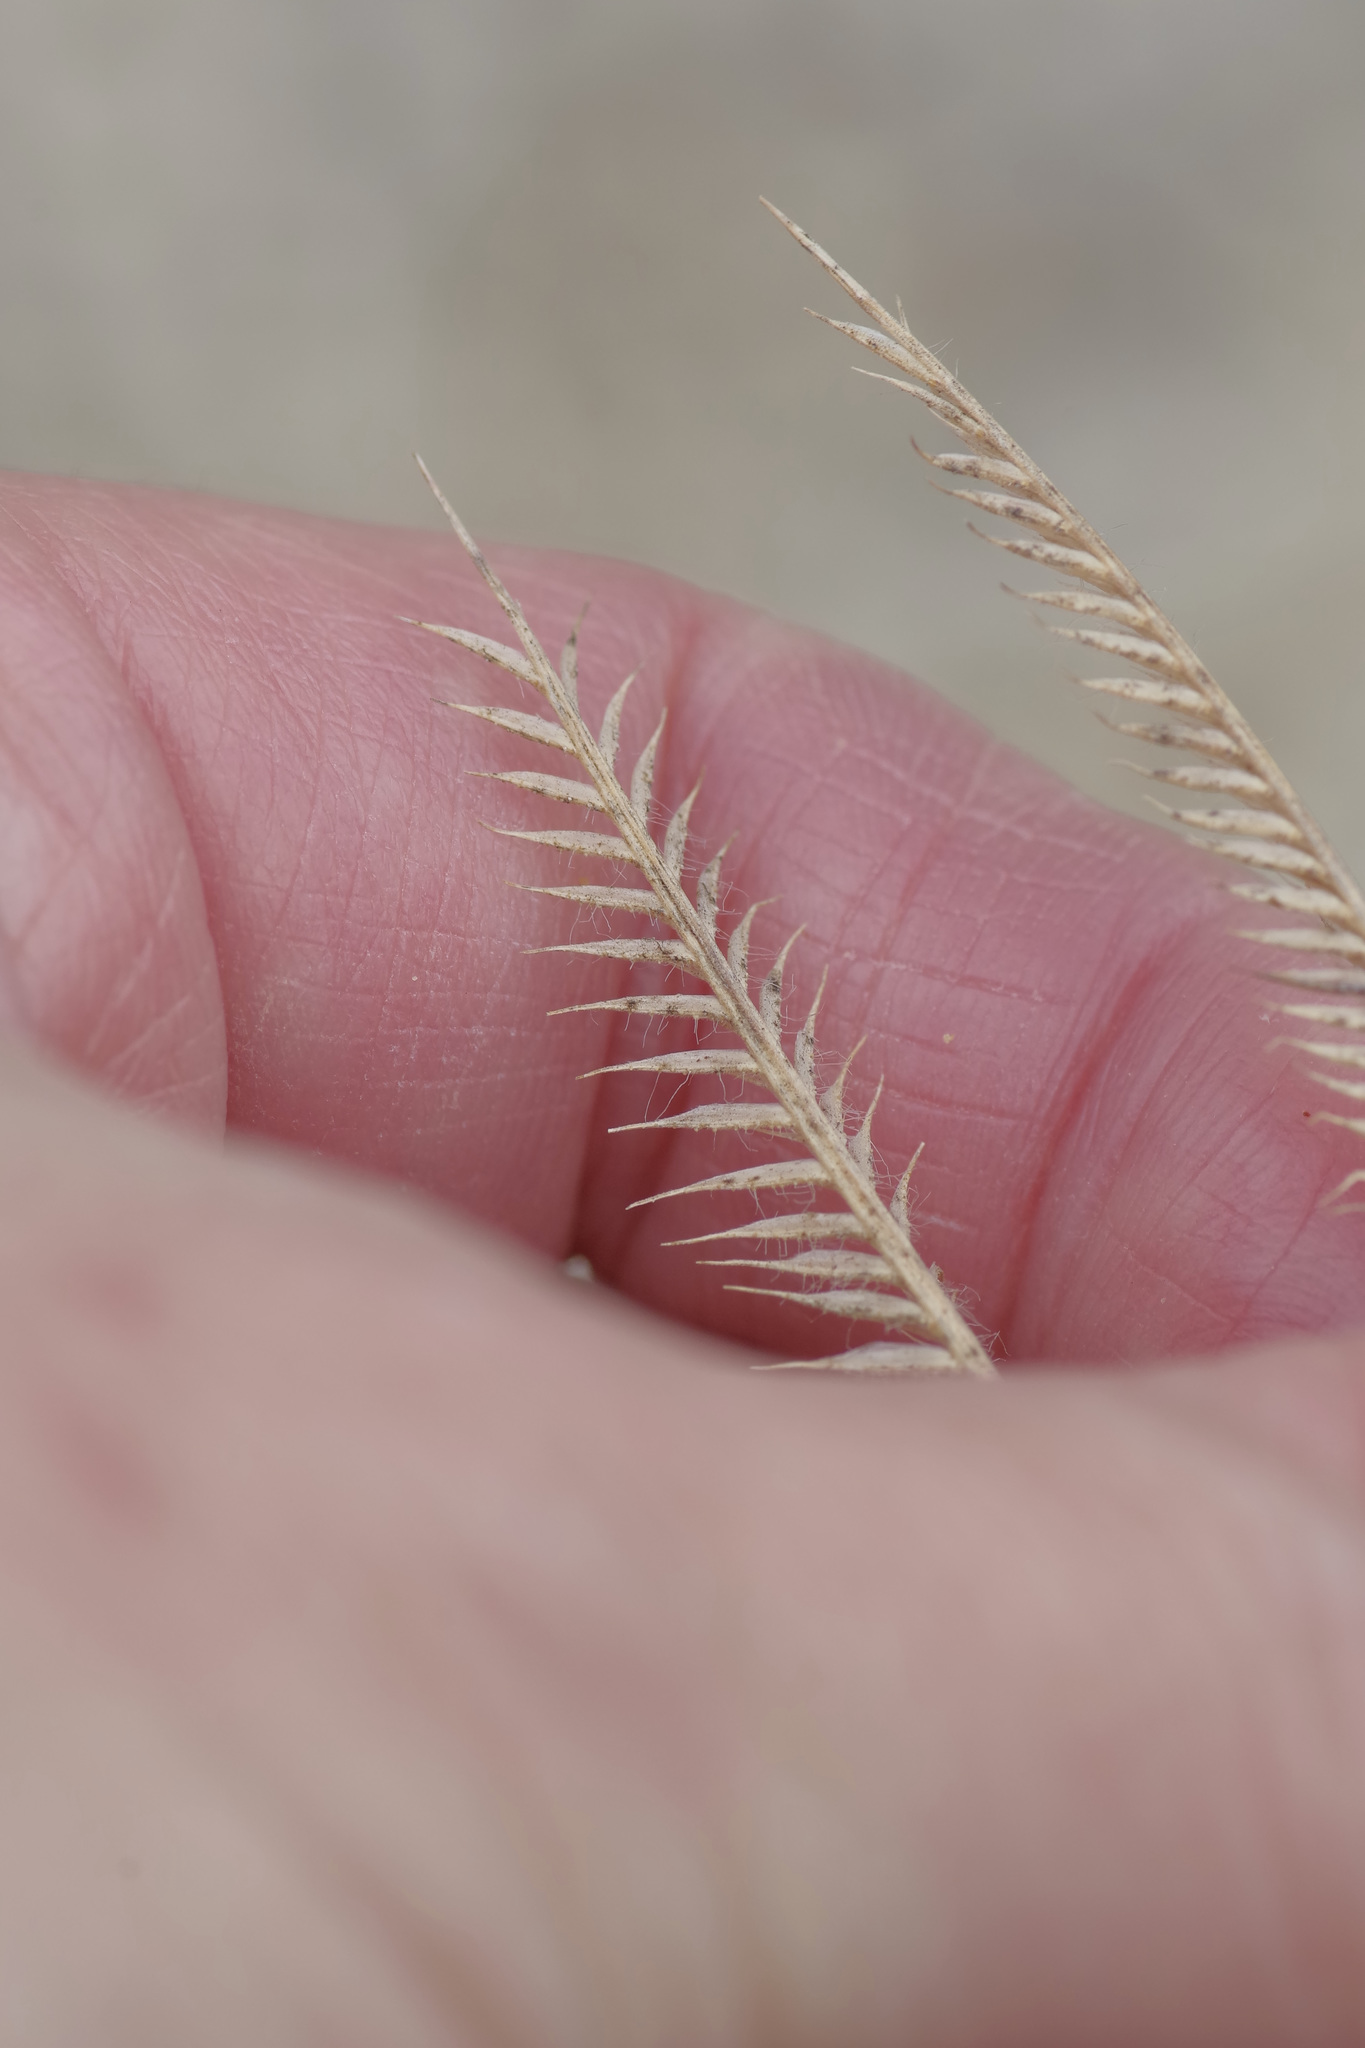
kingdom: Plantae
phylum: Tracheophyta
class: Liliopsida
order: Poales
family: Poaceae
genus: Bouteloua
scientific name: Bouteloua hirsuta
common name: Hairy grama
